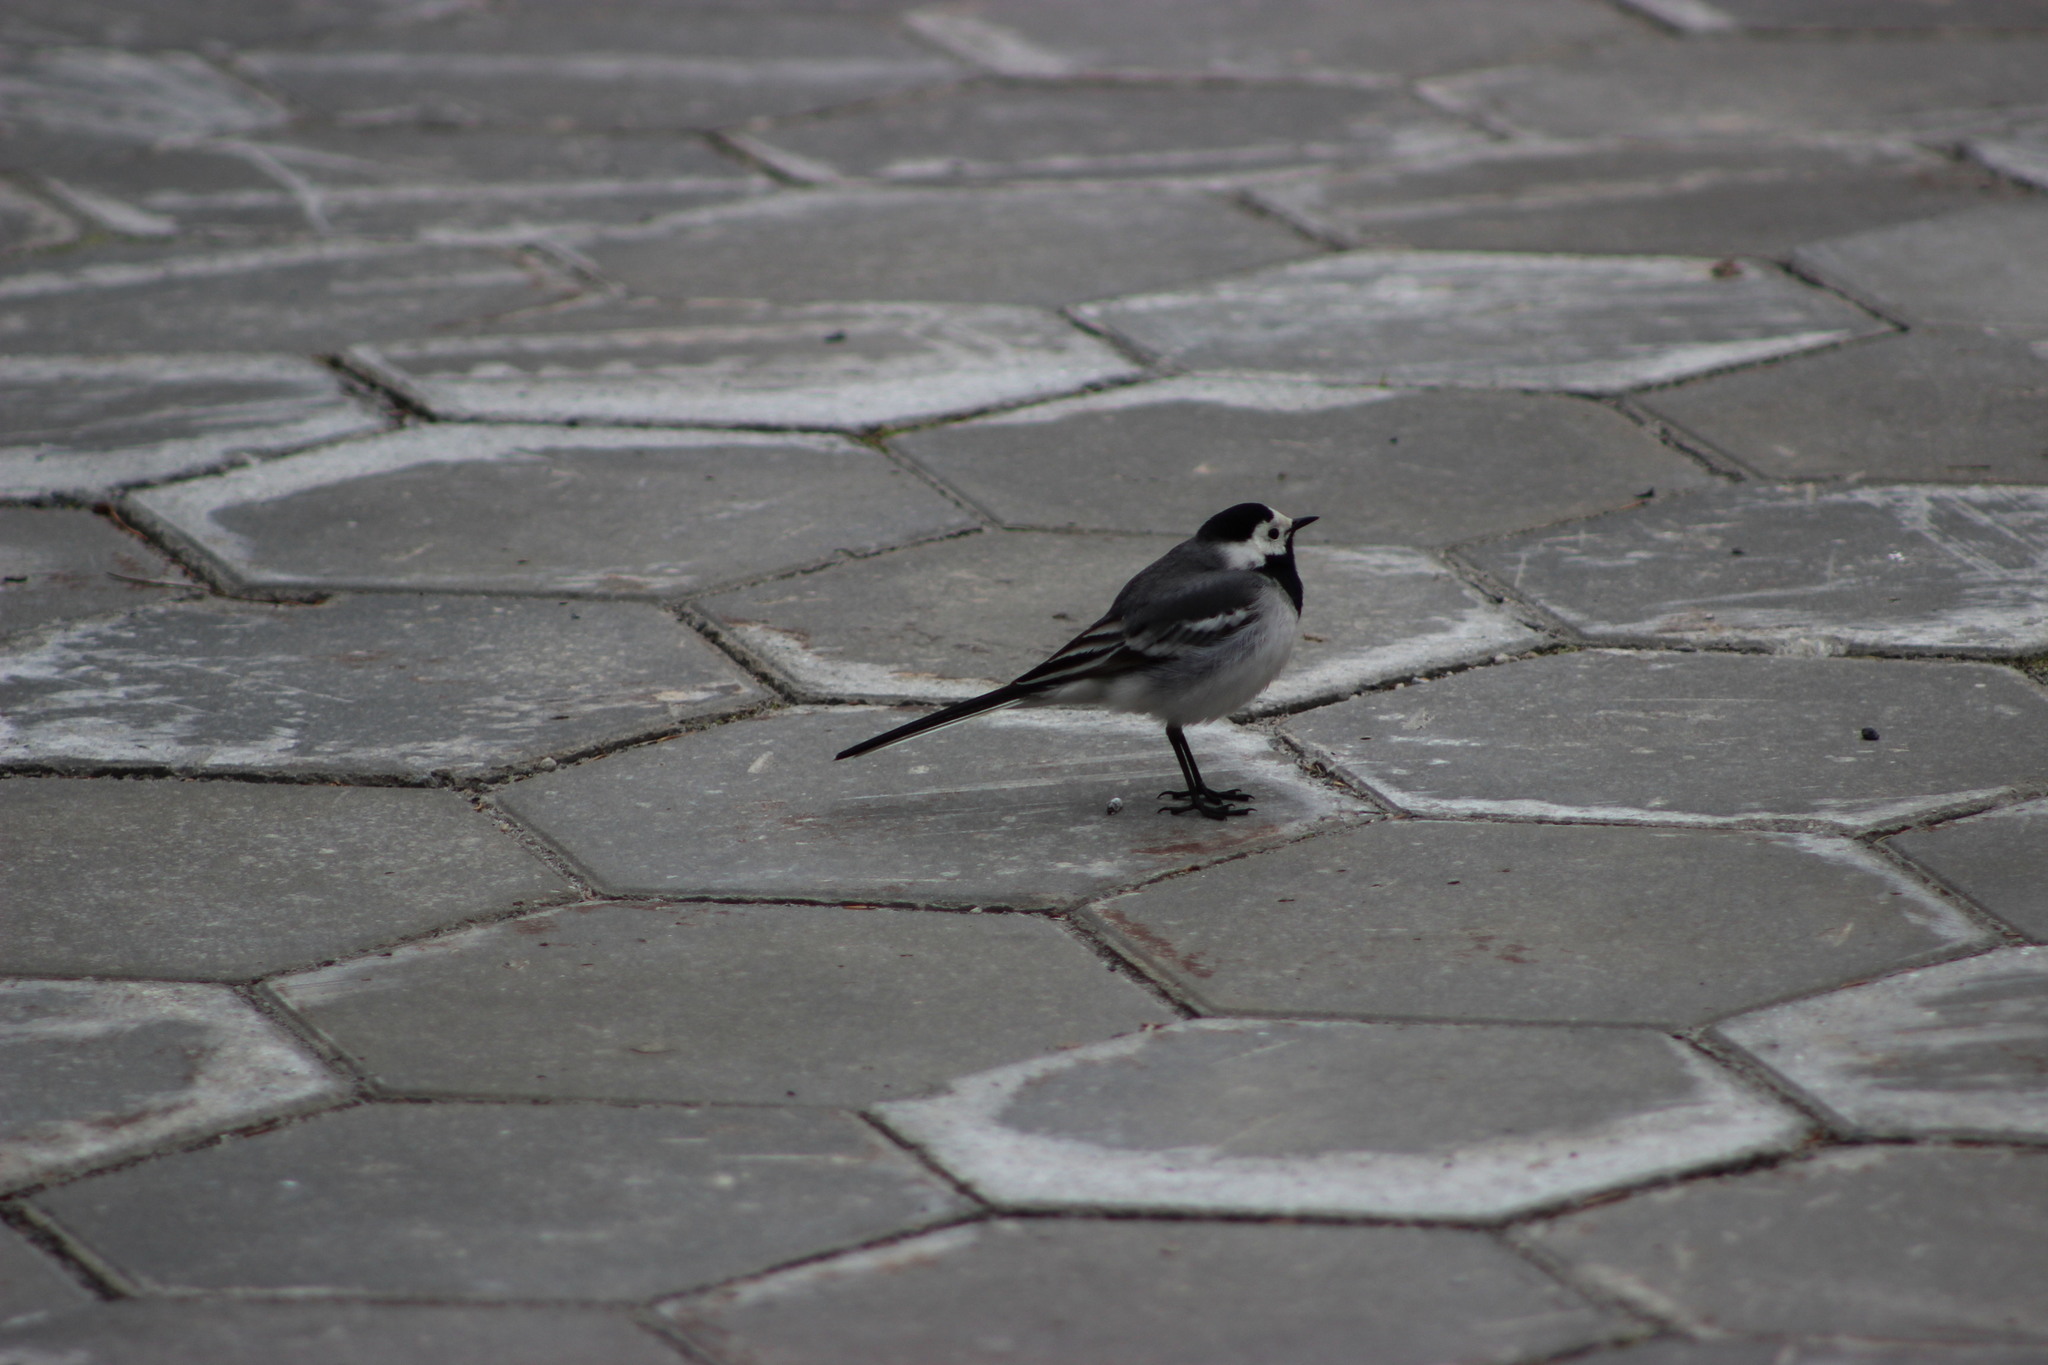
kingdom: Animalia
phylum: Chordata
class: Aves
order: Passeriformes
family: Motacillidae
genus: Motacilla
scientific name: Motacilla alba
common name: White wagtail
